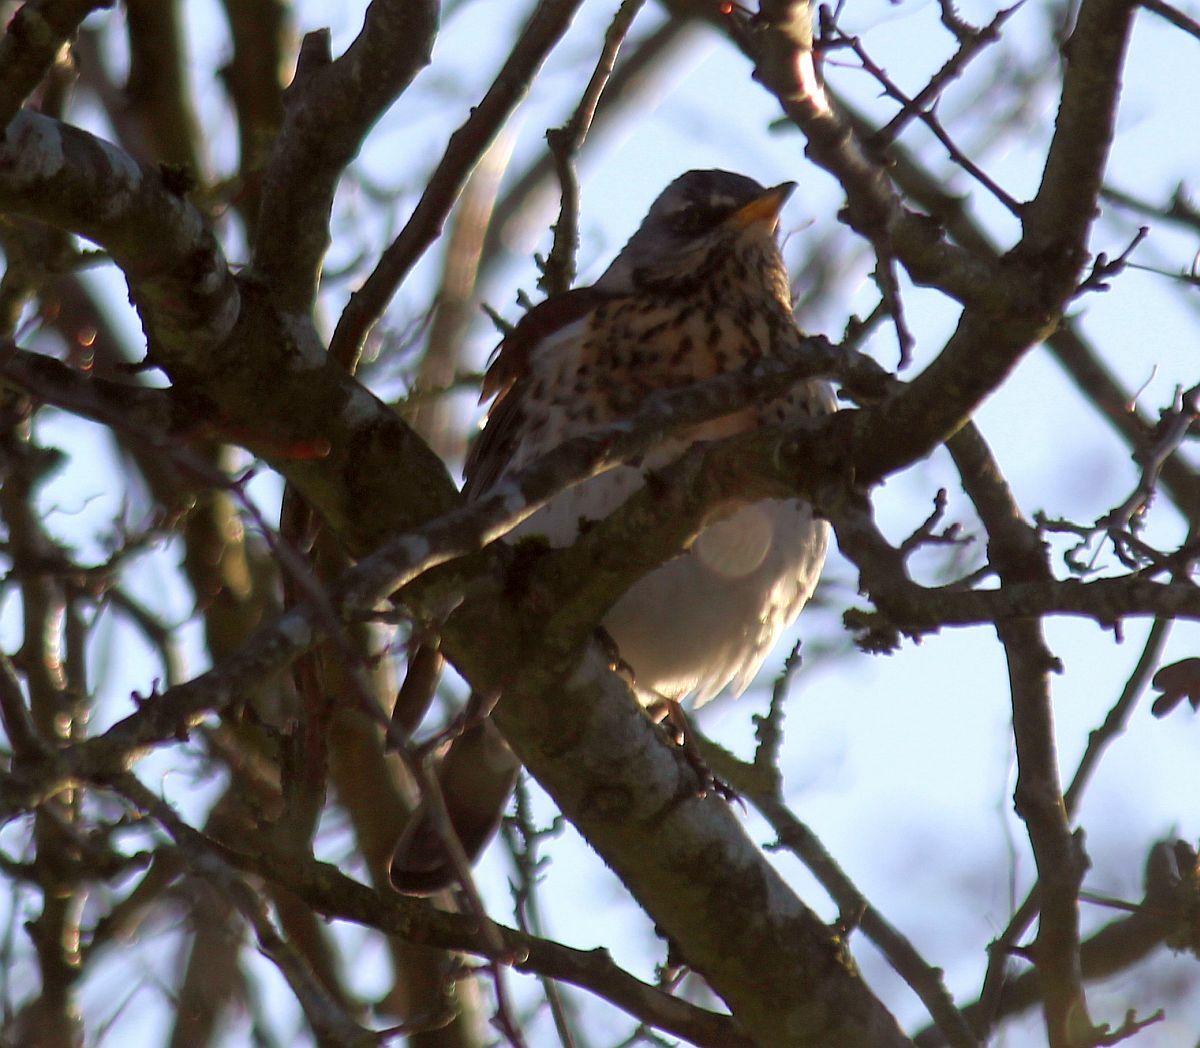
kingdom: Animalia
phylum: Chordata
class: Aves
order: Passeriformes
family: Turdidae
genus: Turdus
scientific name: Turdus pilaris
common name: Fieldfare
